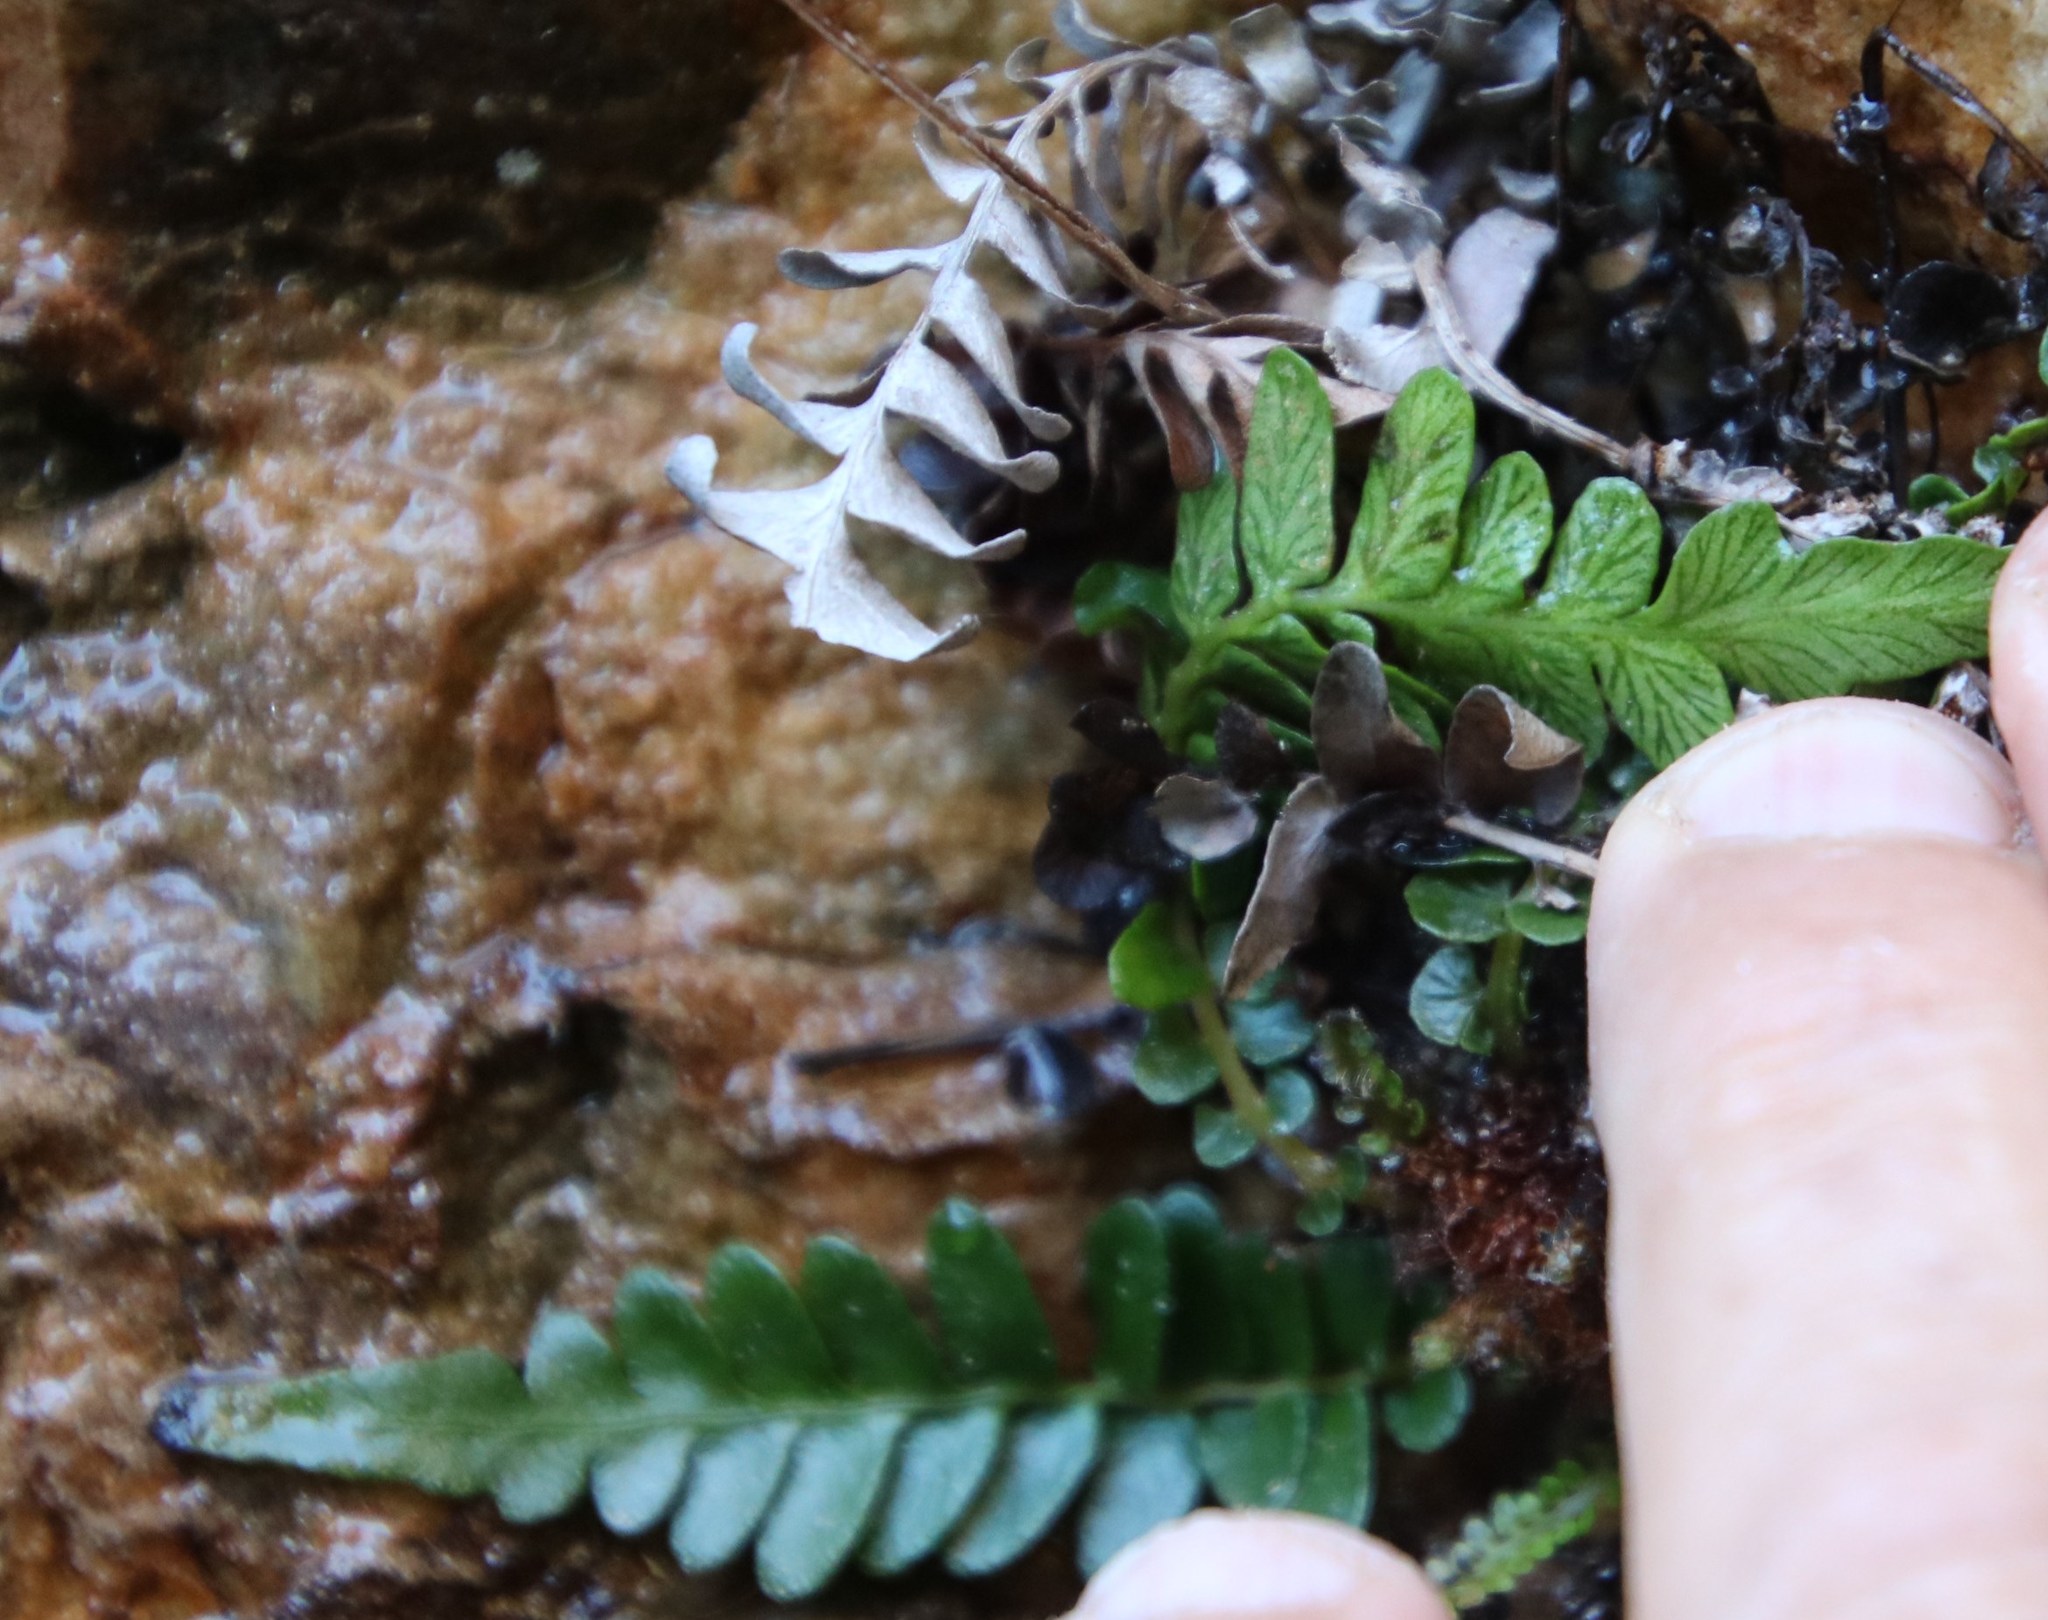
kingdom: Plantae
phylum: Tracheophyta
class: Polypodiopsida
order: Polypodiales
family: Blechnaceae
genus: Blechnum
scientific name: Blechnum australe
